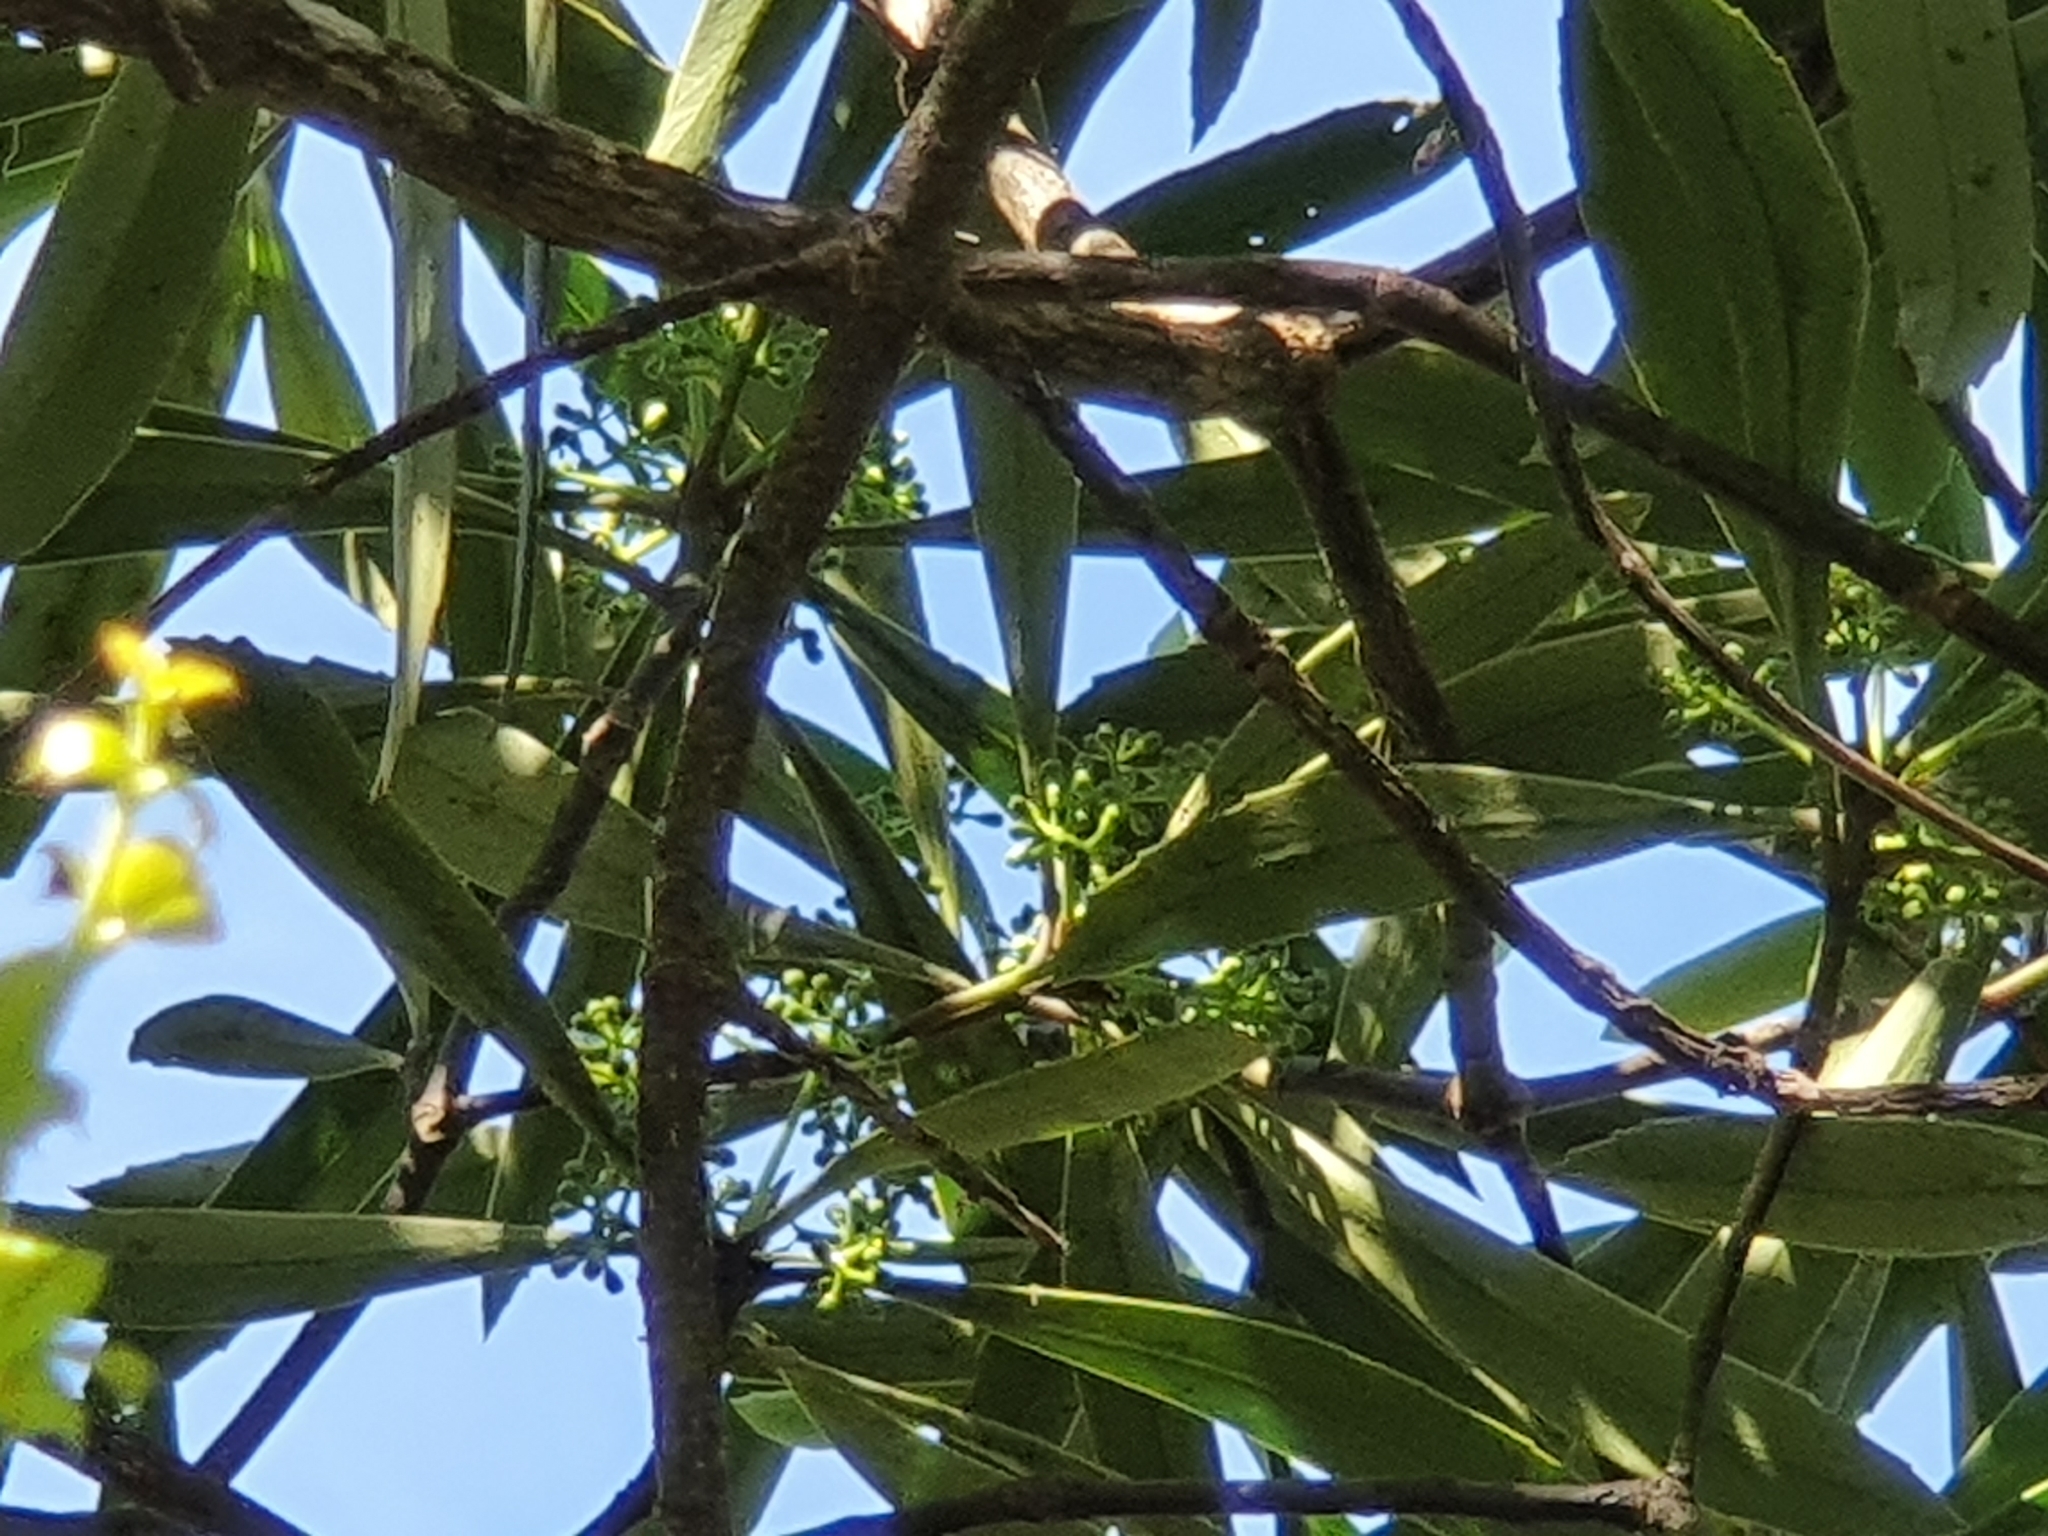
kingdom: Plantae
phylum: Tracheophyta
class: Magnoliopsida
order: Apiales
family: Araliaceae
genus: Pseudopanax
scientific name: Pseudopanax crassifolius
